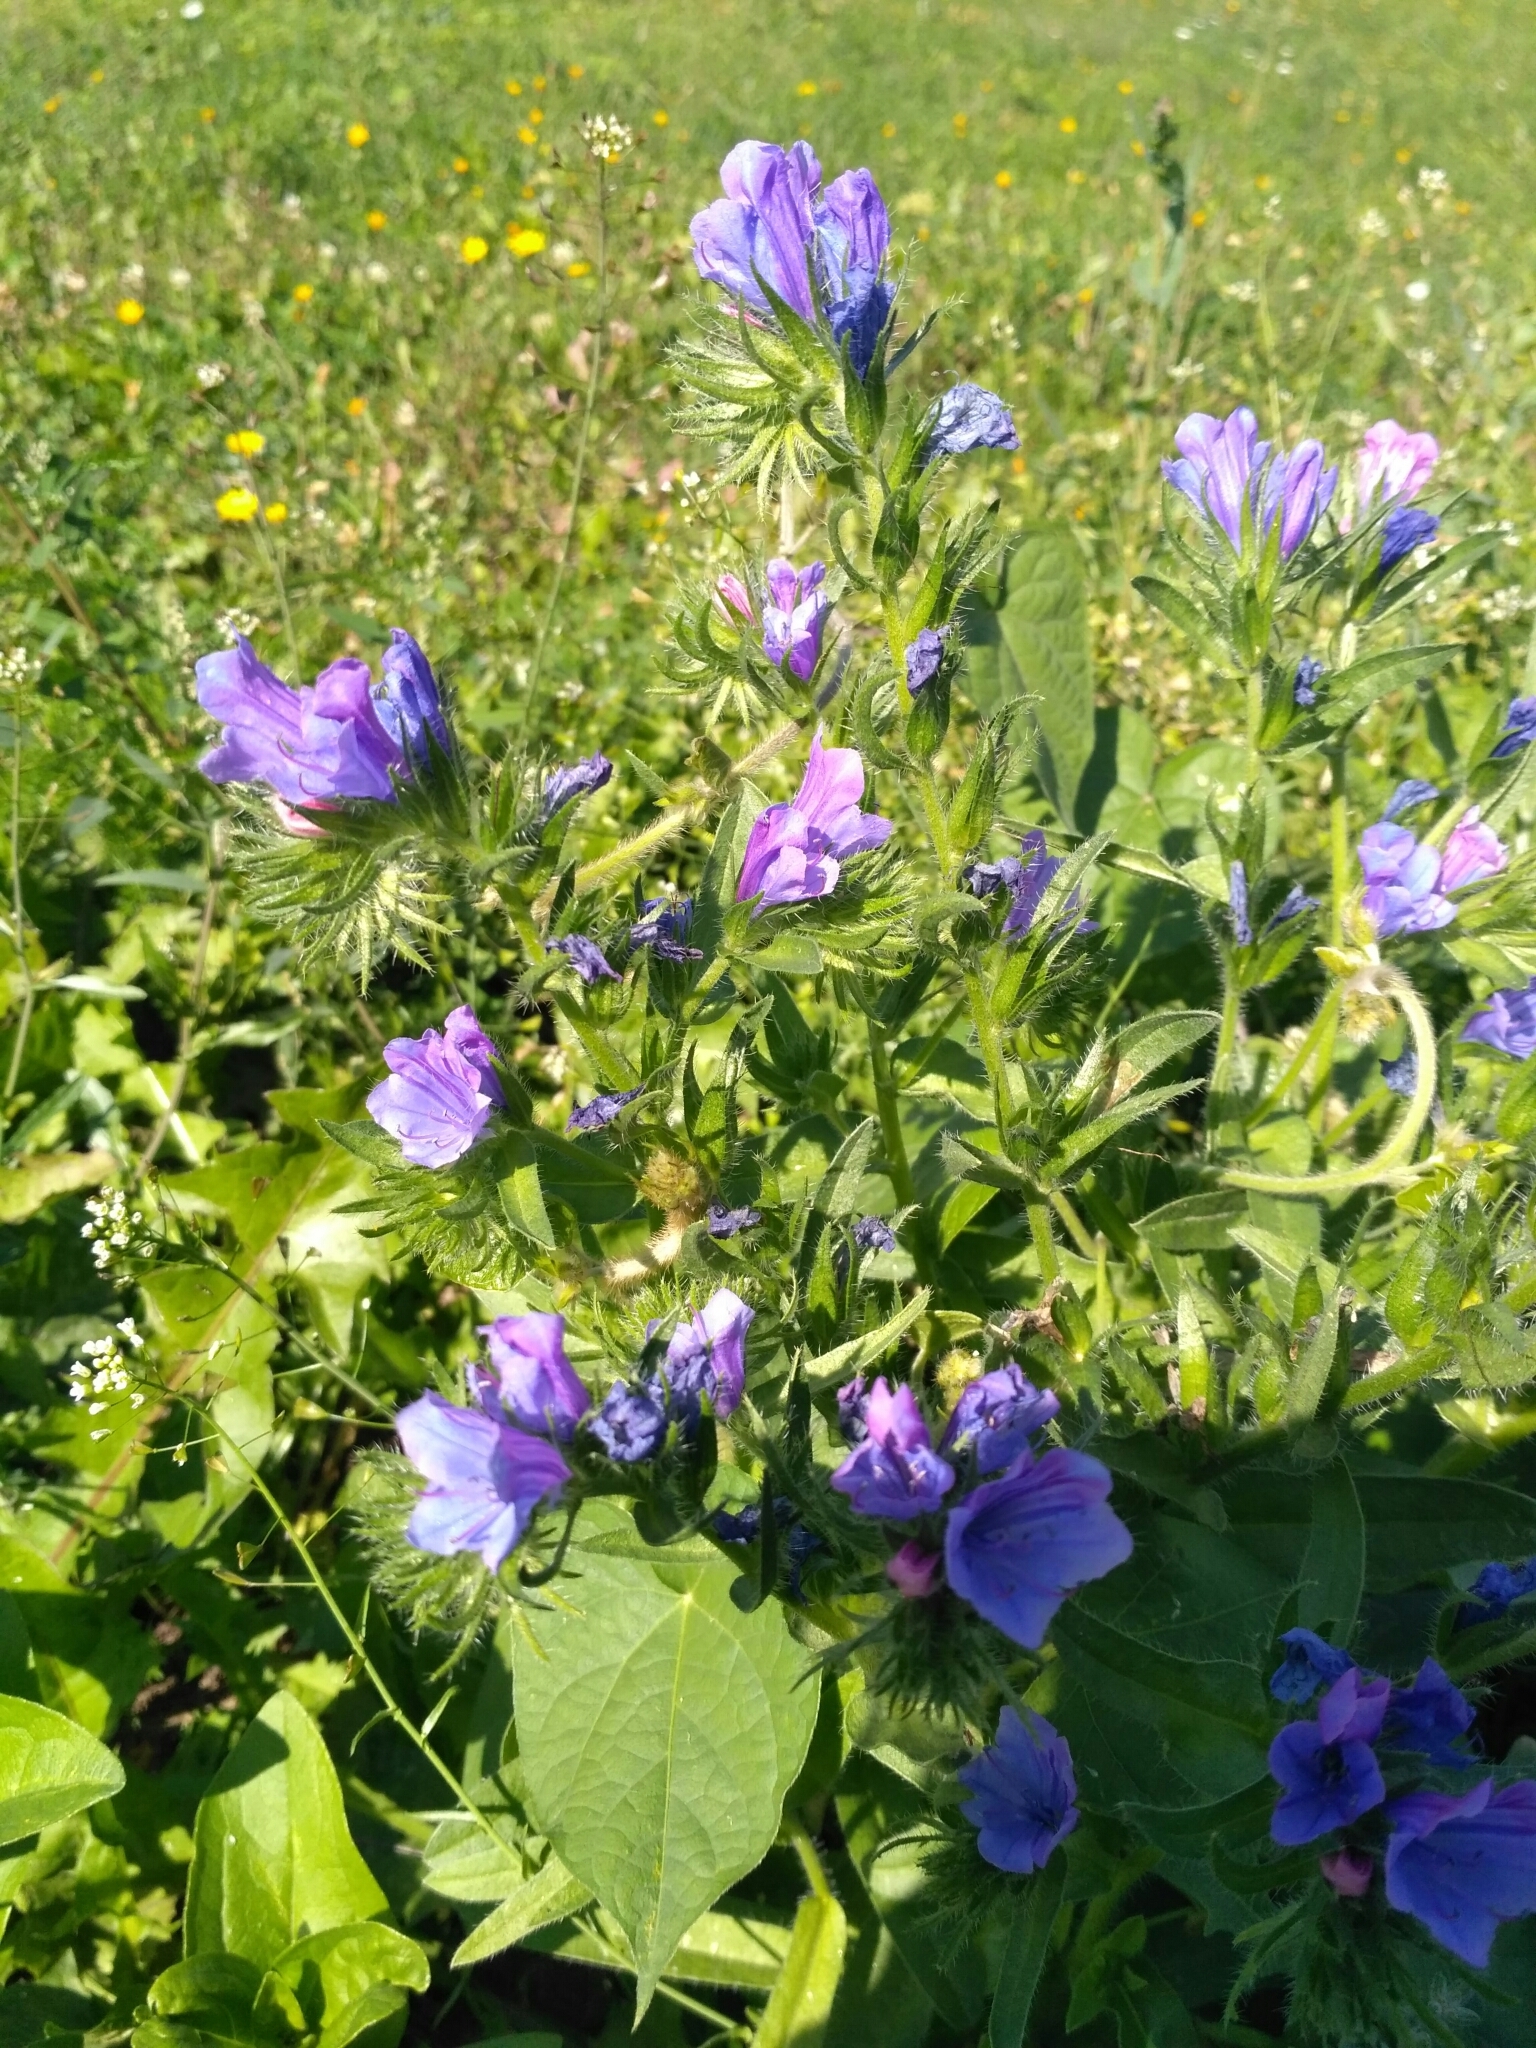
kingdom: Plantae
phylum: Tracheophyta
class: Magnoliopsida
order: Boraginales
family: Boraginaceae
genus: Echium
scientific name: Echium vulgare
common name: Common viper's bugloss
